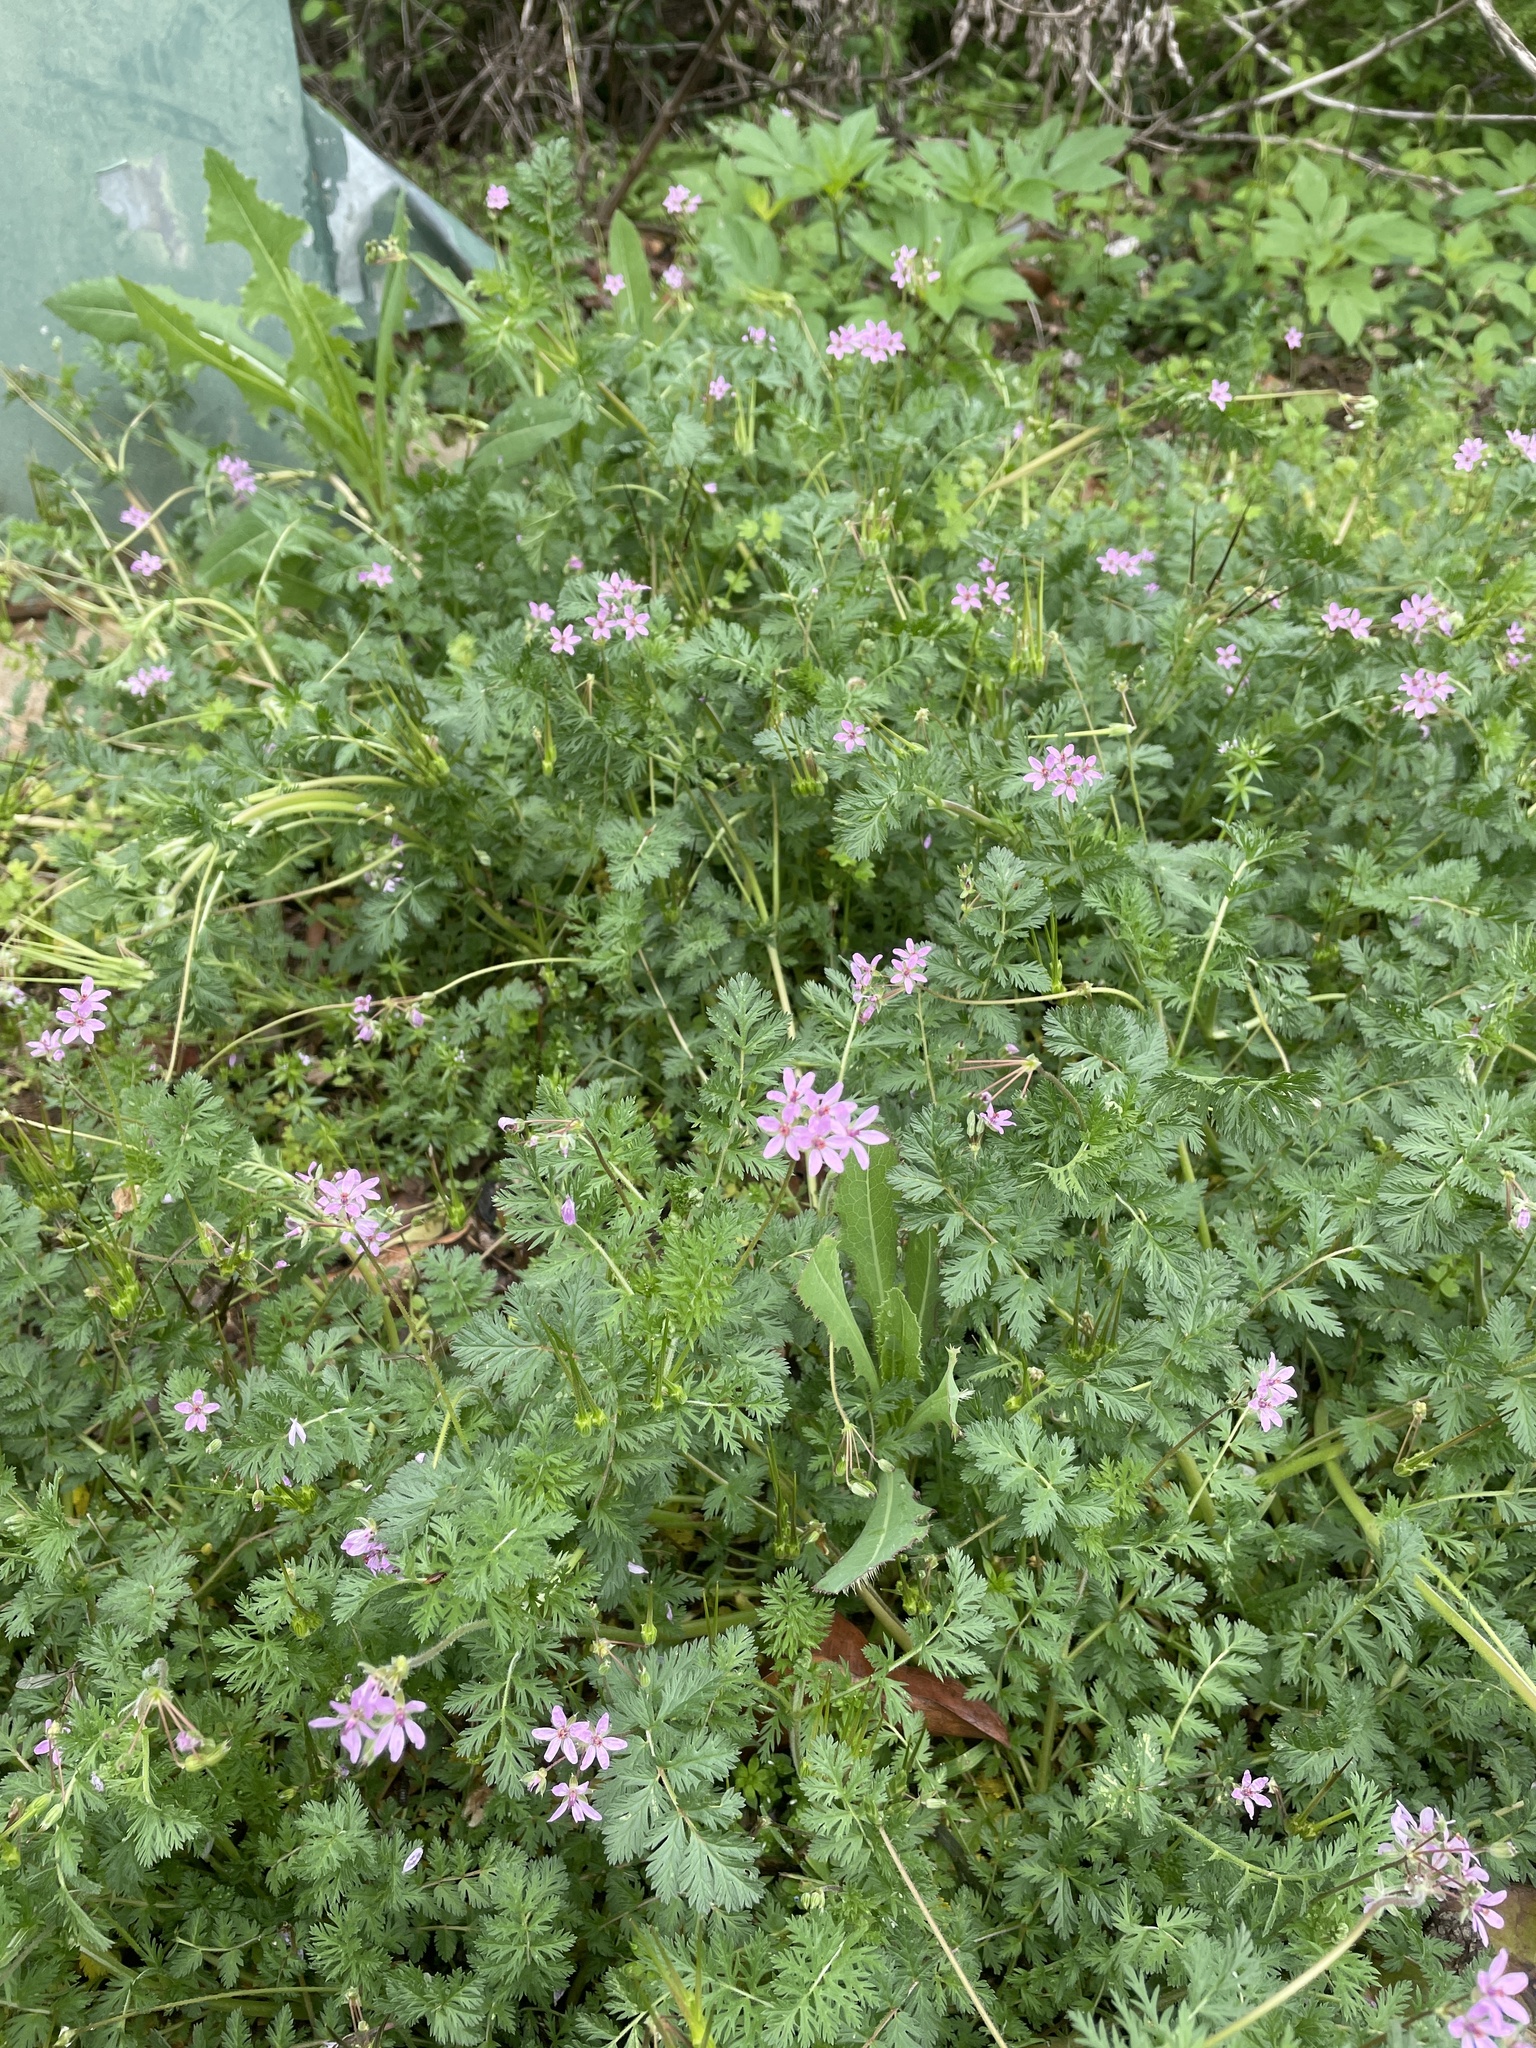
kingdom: Plantae
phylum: Tracheophyta
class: Magnoliopsida
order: Geraniales
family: Geraniaceae
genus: Erodium
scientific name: Erodium cicutarium
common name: Common stork's-bill
